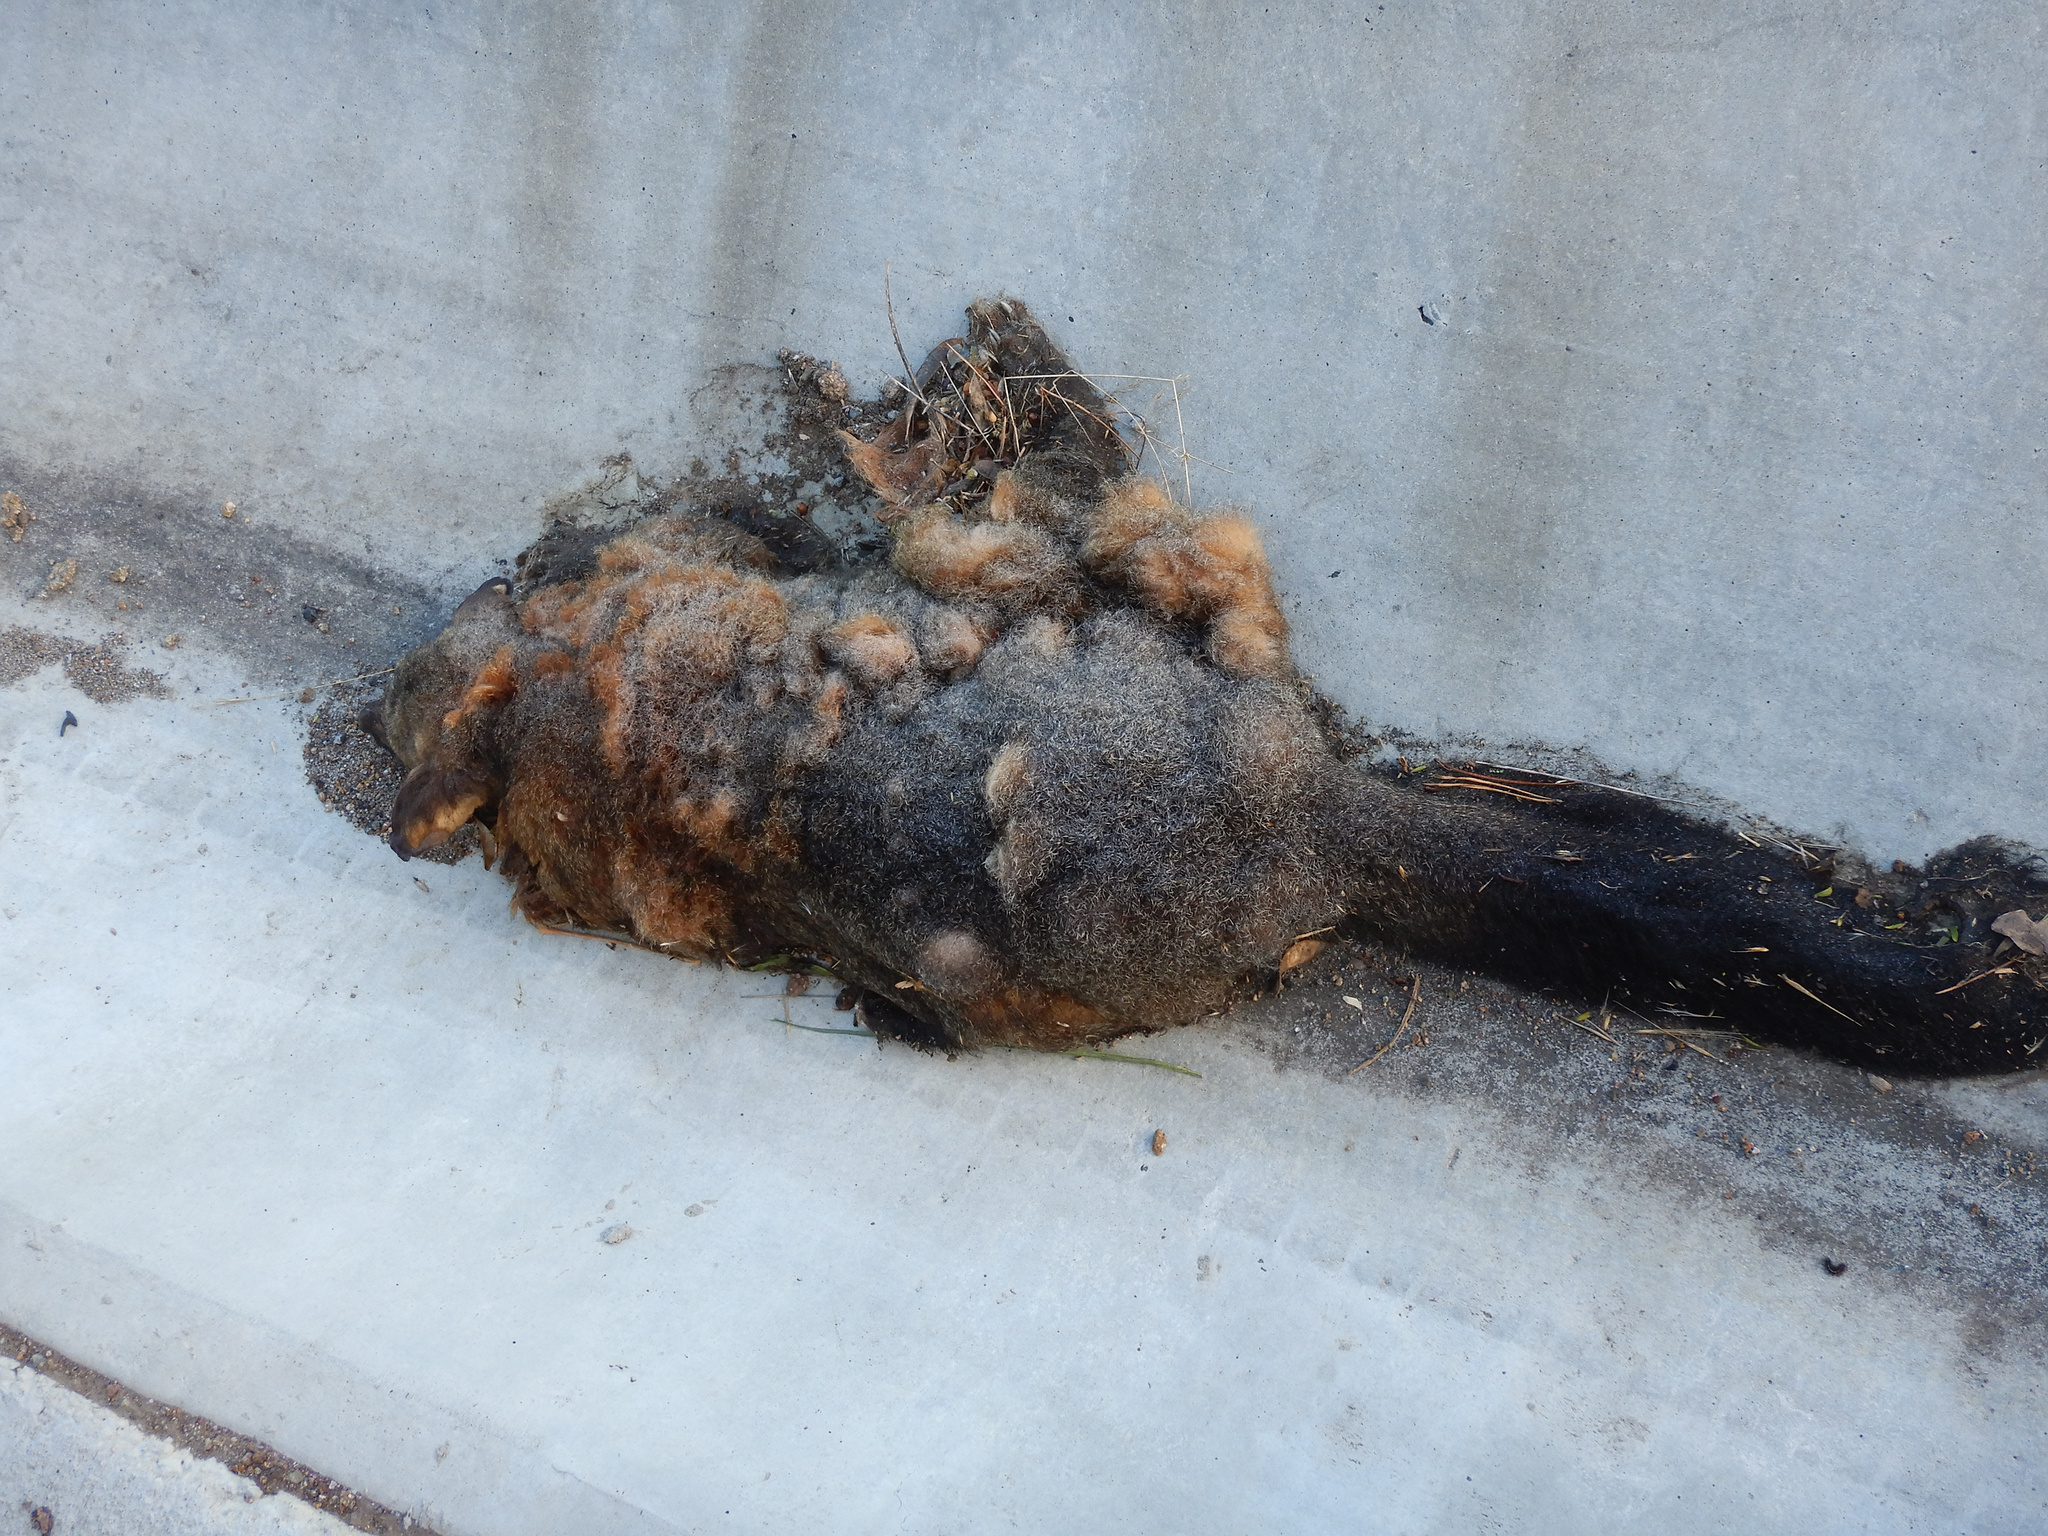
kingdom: Animalia
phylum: Chordata
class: Mammalia
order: Diprotodontia
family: Phalangeridae
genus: Trichosurus
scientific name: Trichosurus vulpecula
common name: Common brushtail
